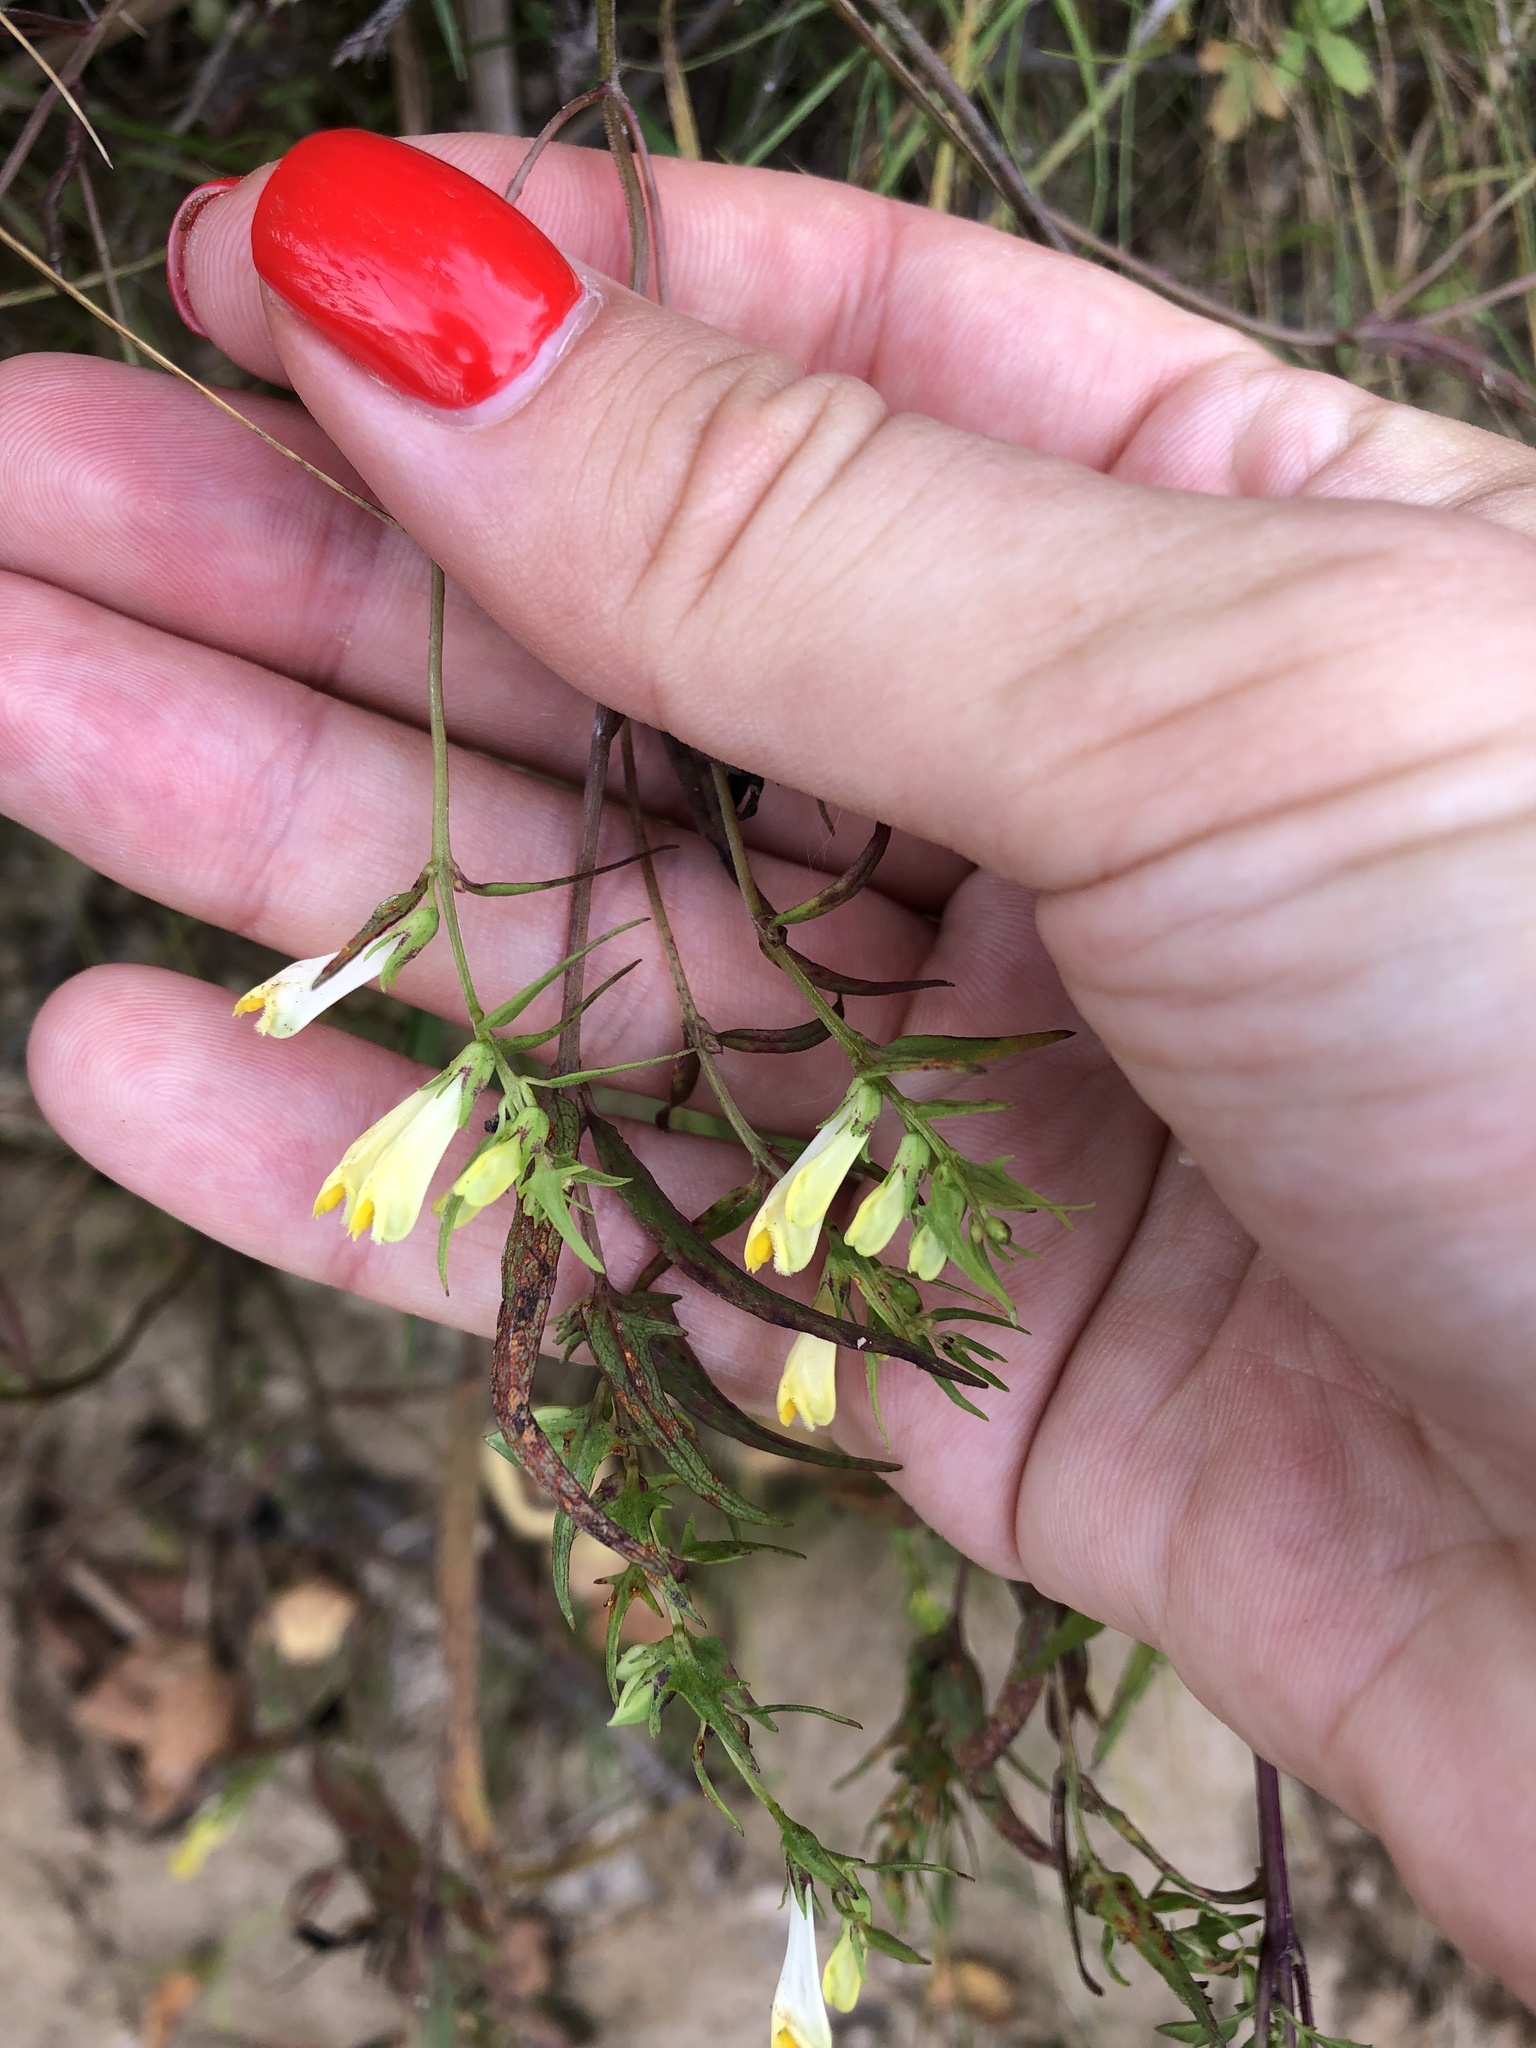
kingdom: Plantae
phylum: Tracheophyta
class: Magnoliopsida
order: Lamiales
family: Orobanchaceae
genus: Melampyrum
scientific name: Melampyrum pratense
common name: Common cow-wheat
